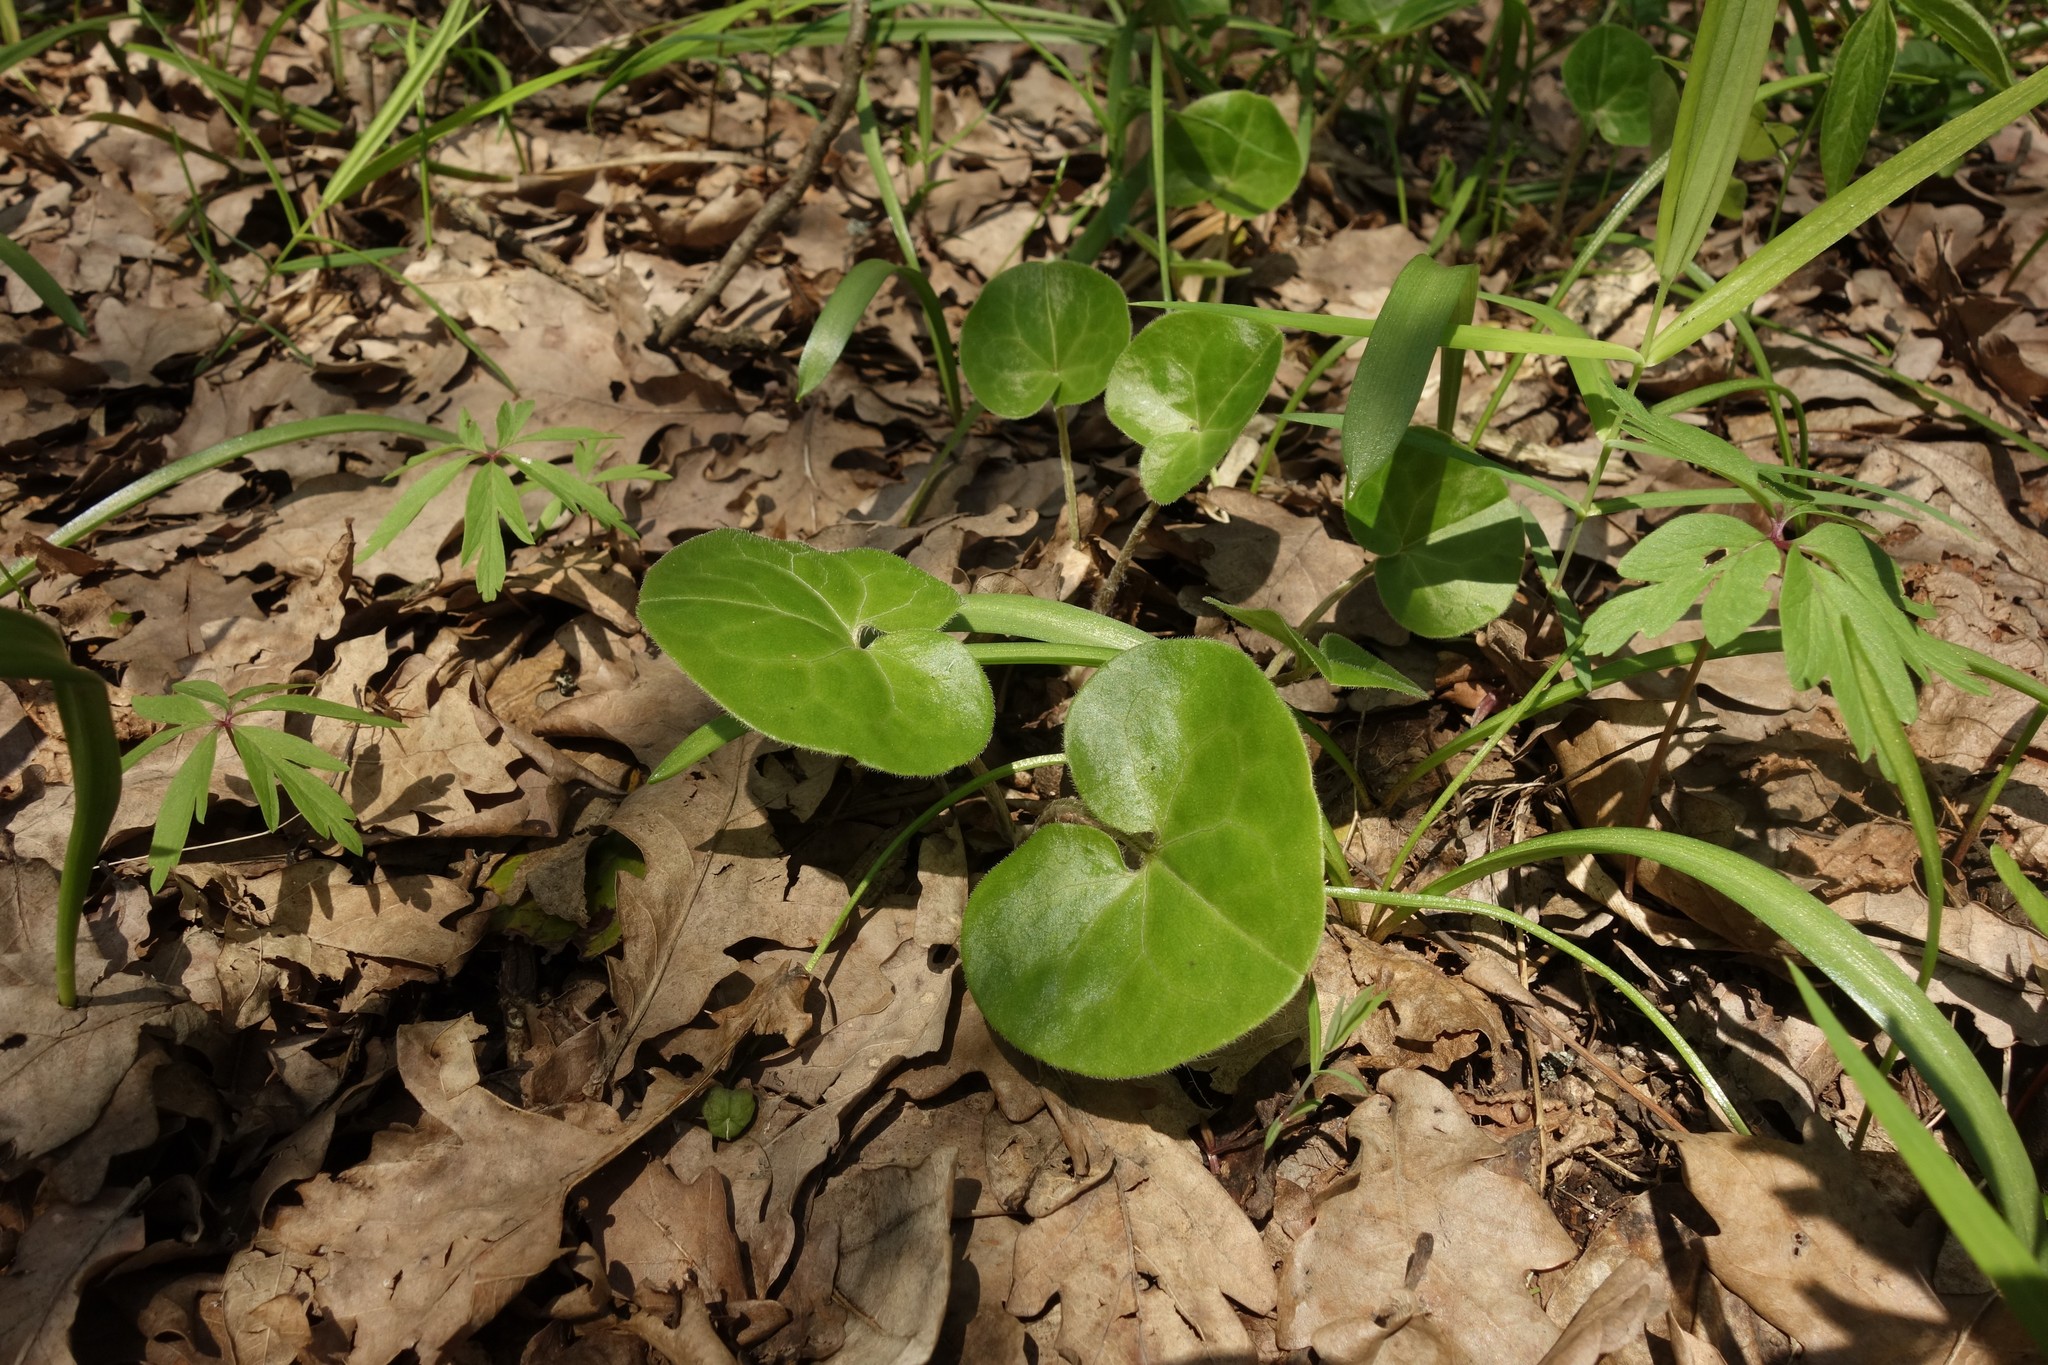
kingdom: Plantae
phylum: Tracheophyta
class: Magnoliopsida
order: Piperales
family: Aristolochiaceae
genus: Asarum
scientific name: Asarum europaeum
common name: Asarabacca
